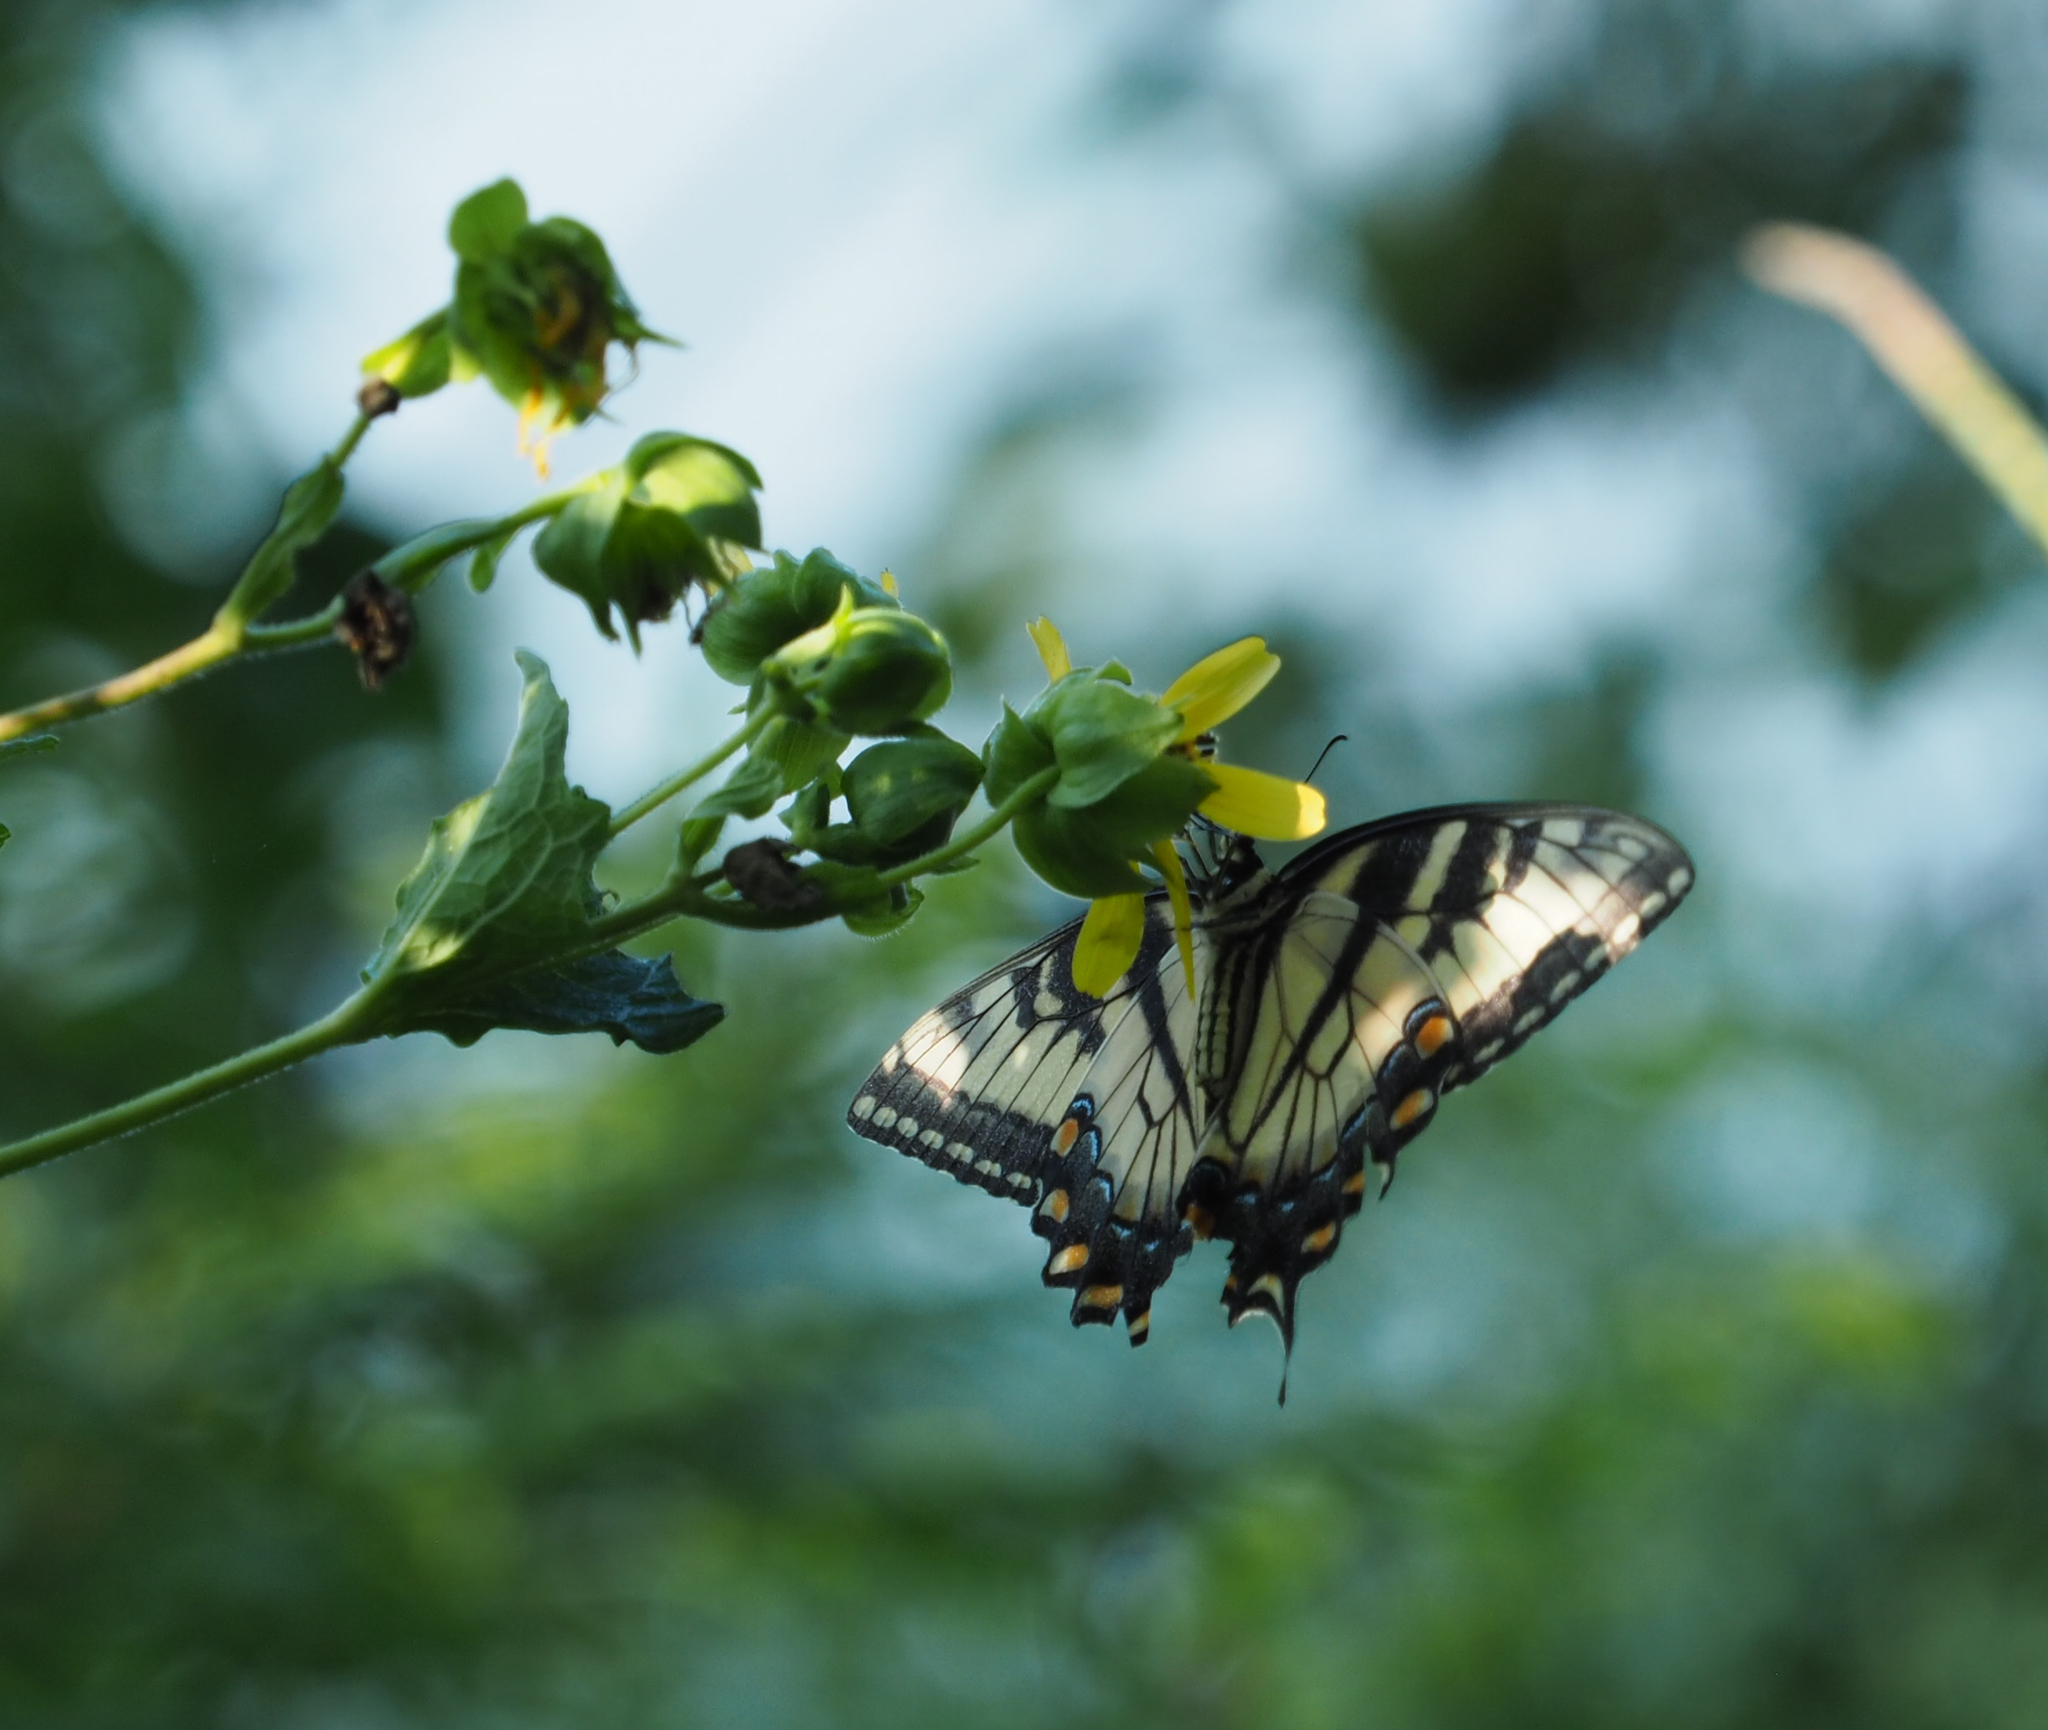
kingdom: Animalia
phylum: Arthropoda
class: Insecta
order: Lepidoptera
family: Papilionidae
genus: Papilio
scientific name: Papilio glaucus
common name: Tiger swallowtail
